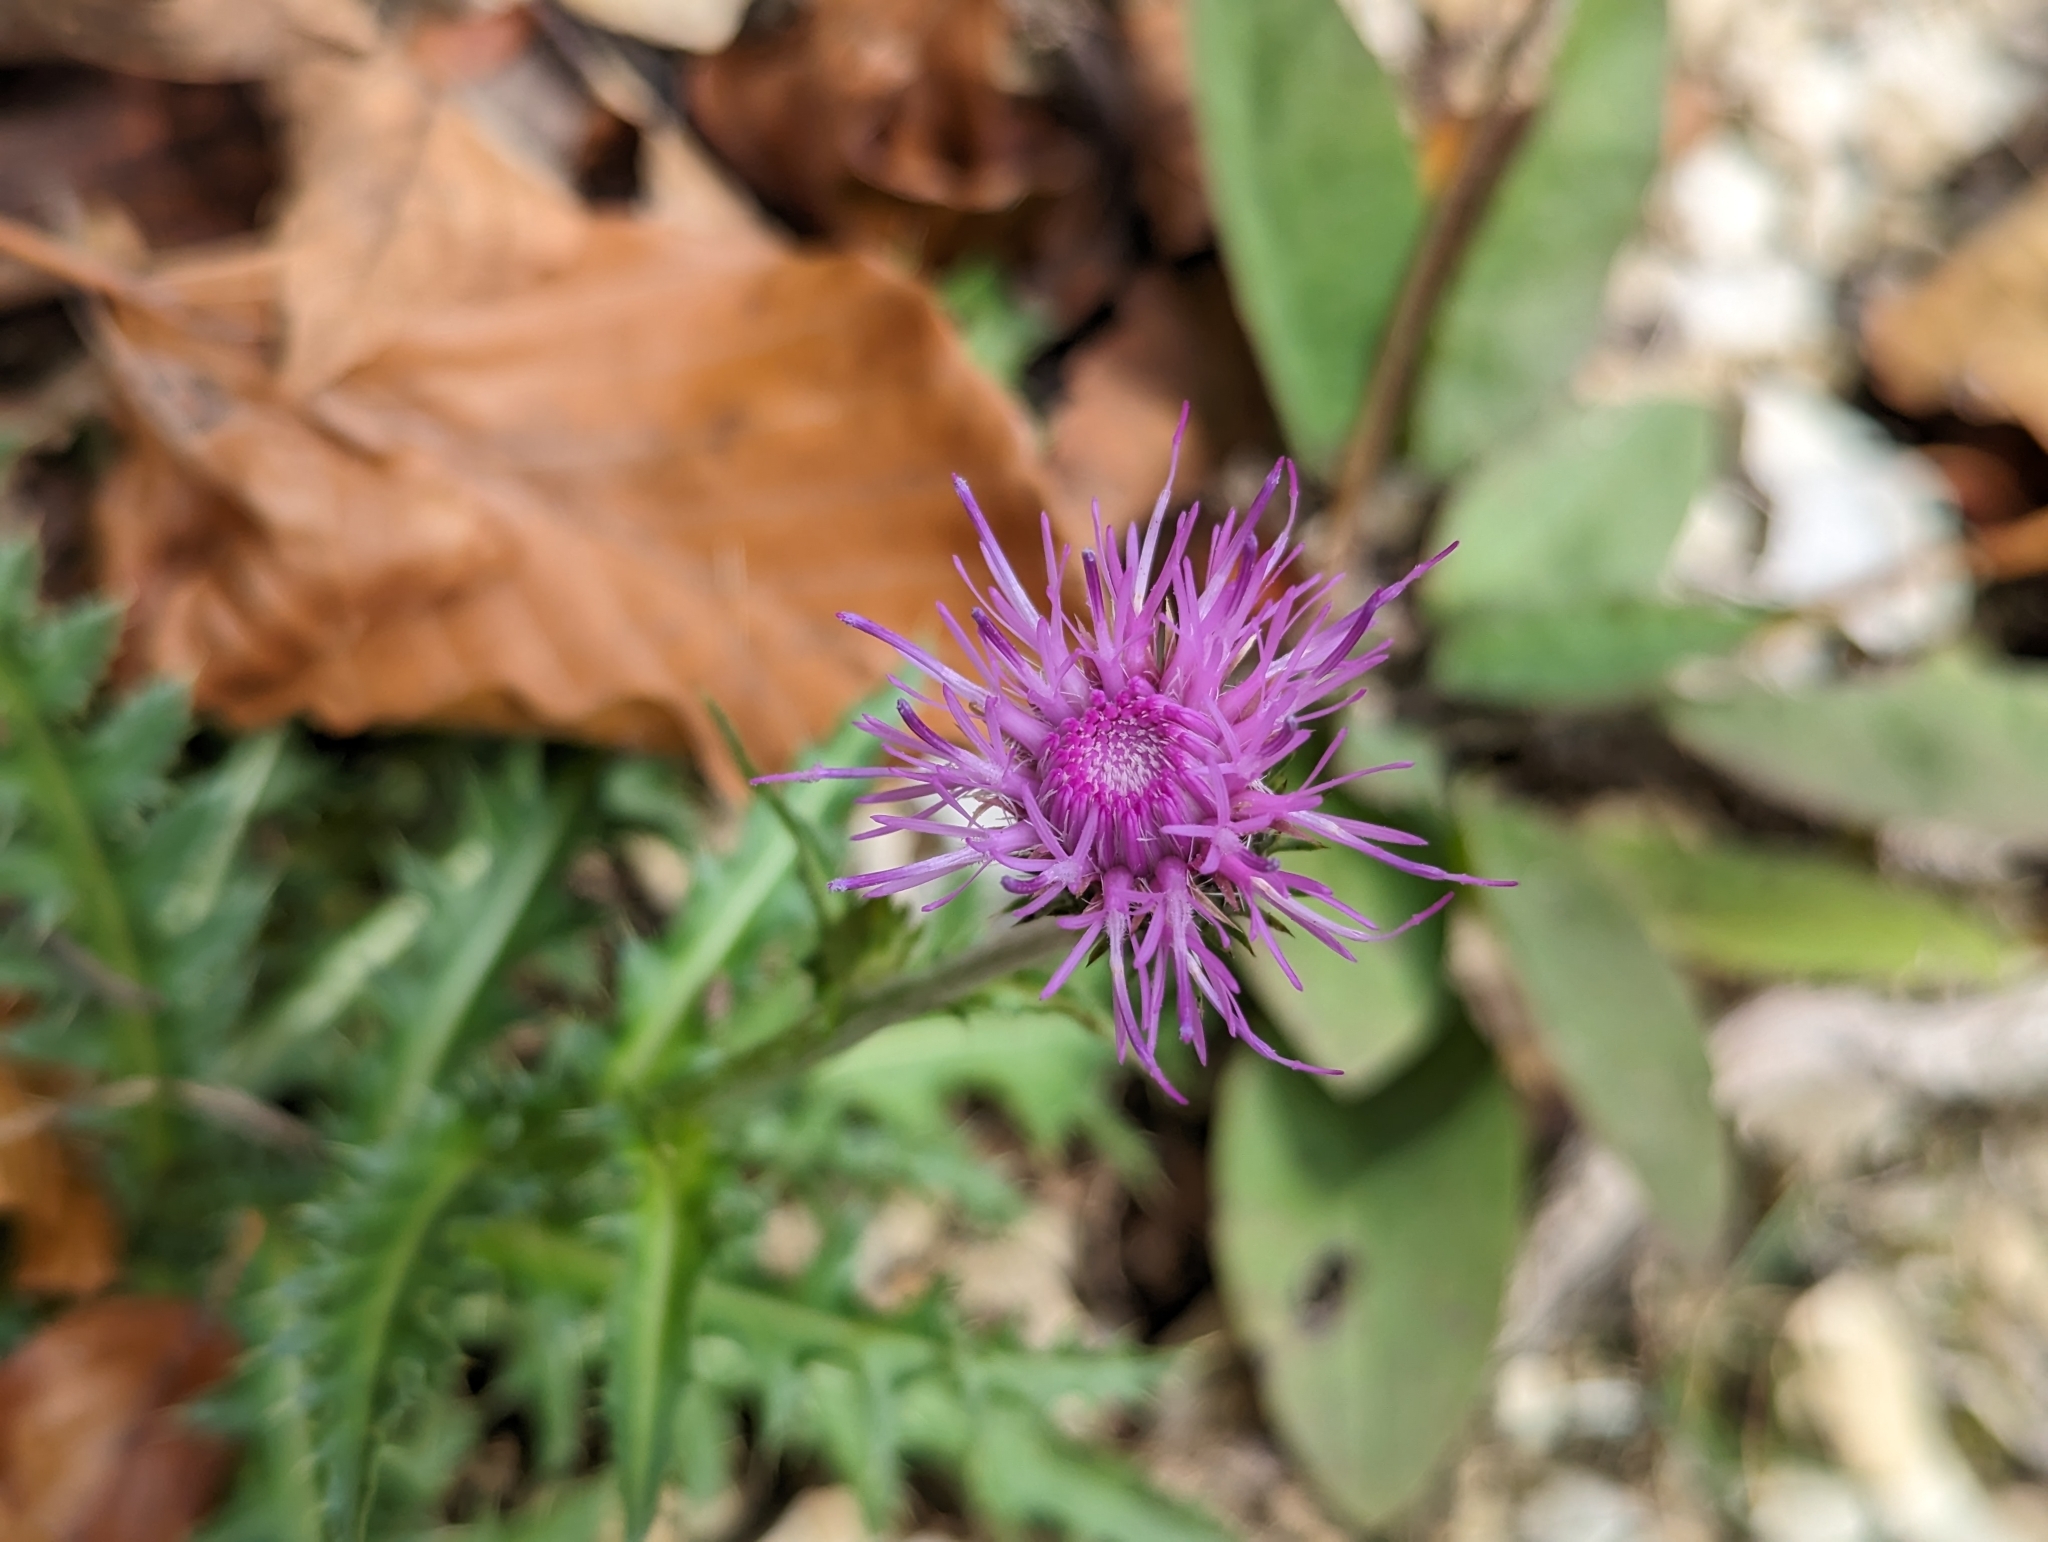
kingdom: Plantae
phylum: Tracheophyta
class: Magnoliopsida
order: Asterales
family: Asteraceae
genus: Carduus
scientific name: Carduus defloratus
